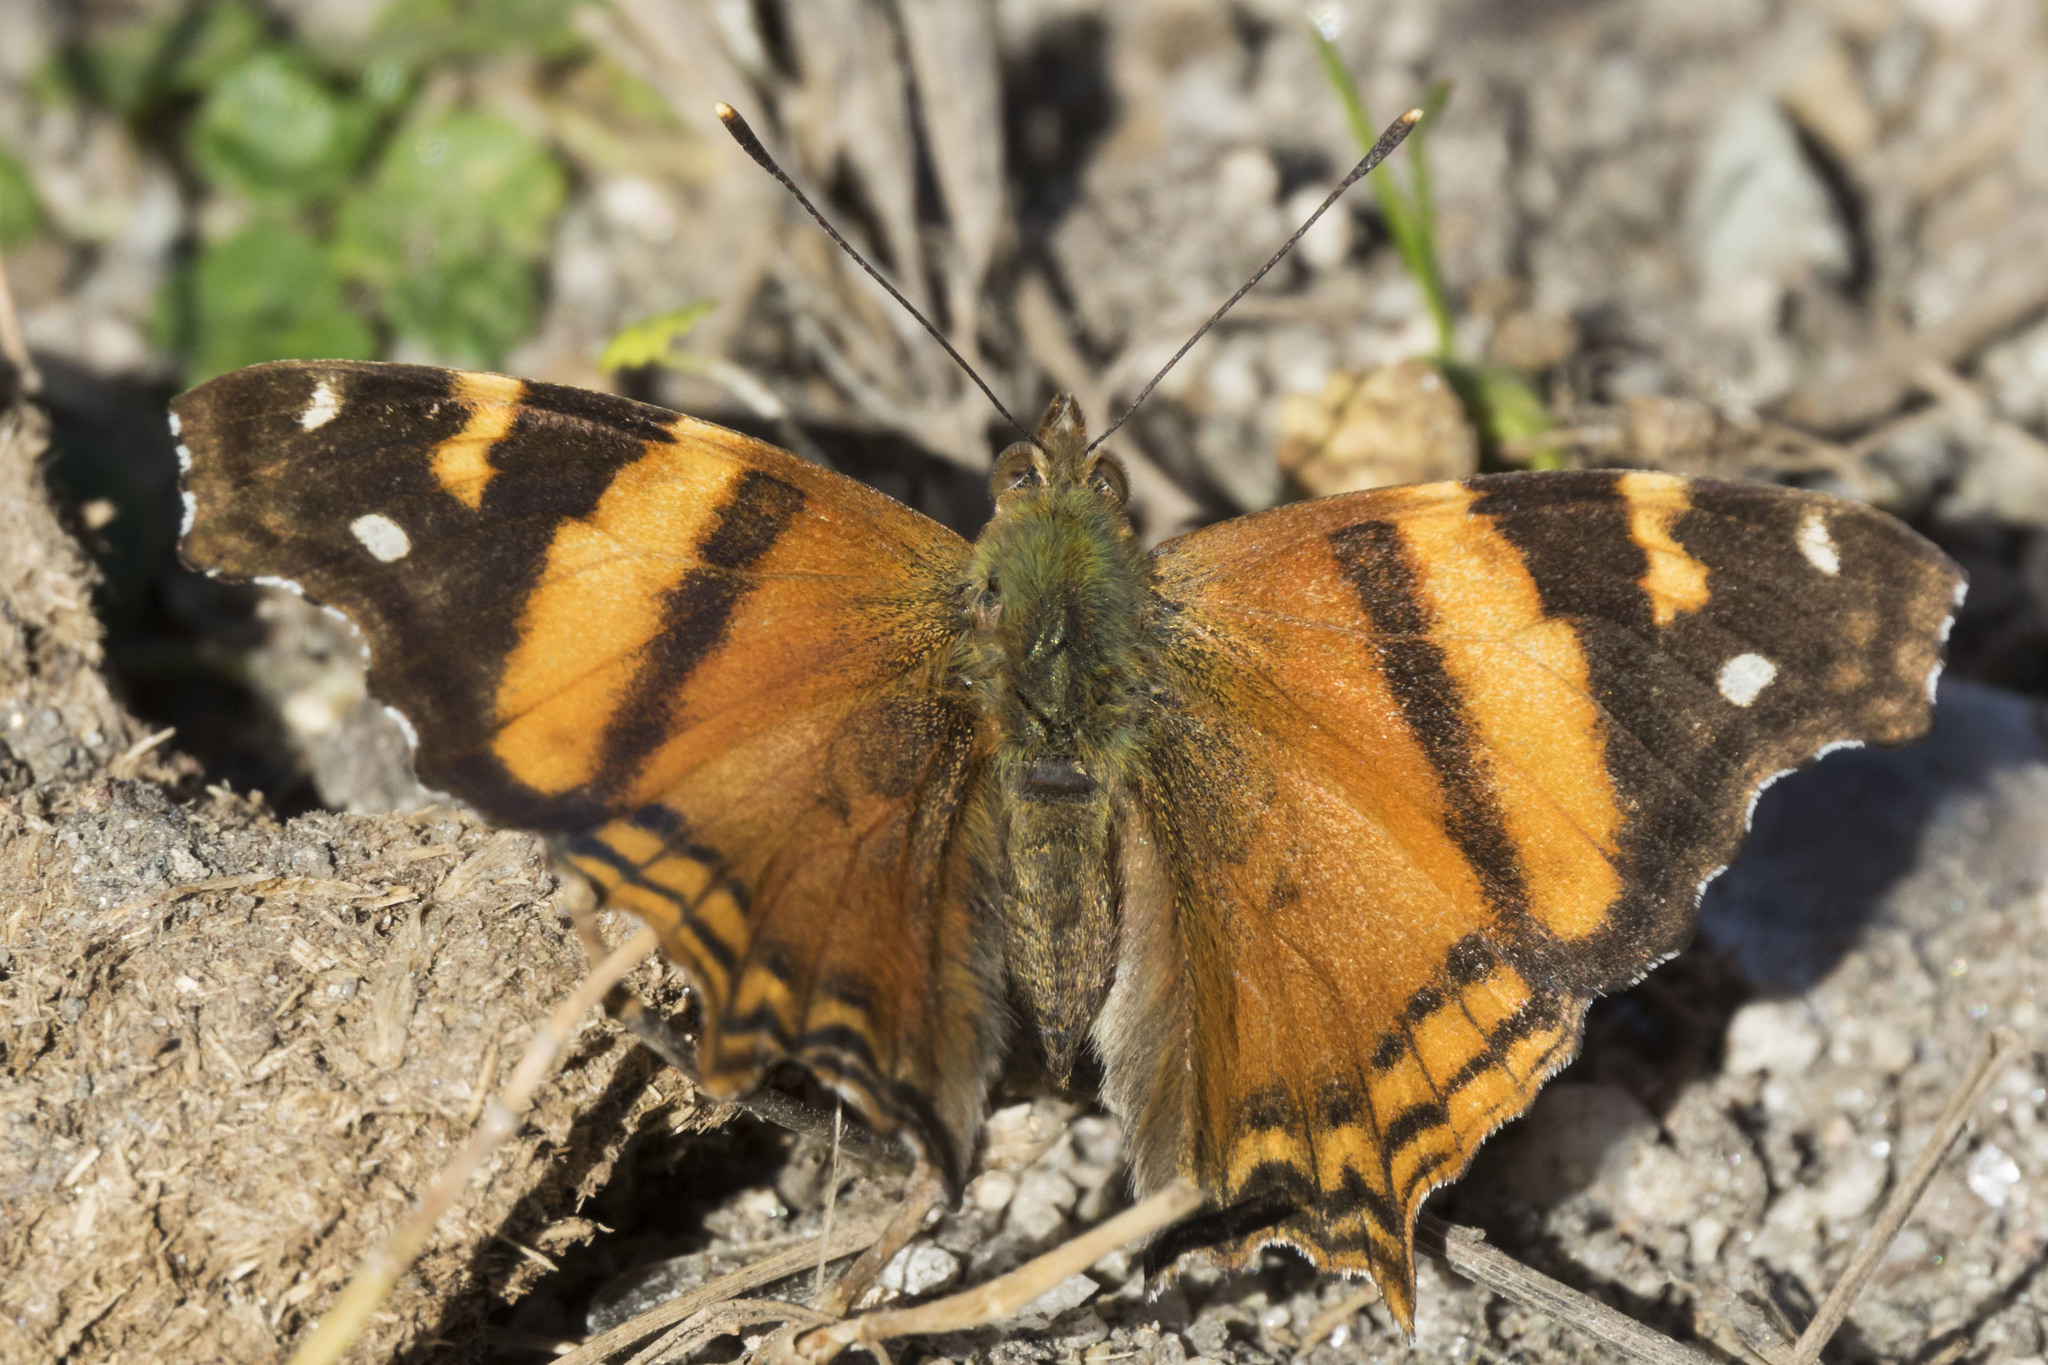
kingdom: Animalia
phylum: Arthropoda
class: Insecta
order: Lepidoptera
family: Nymphalidae
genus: Hypanartia
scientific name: Hypanartia bella
